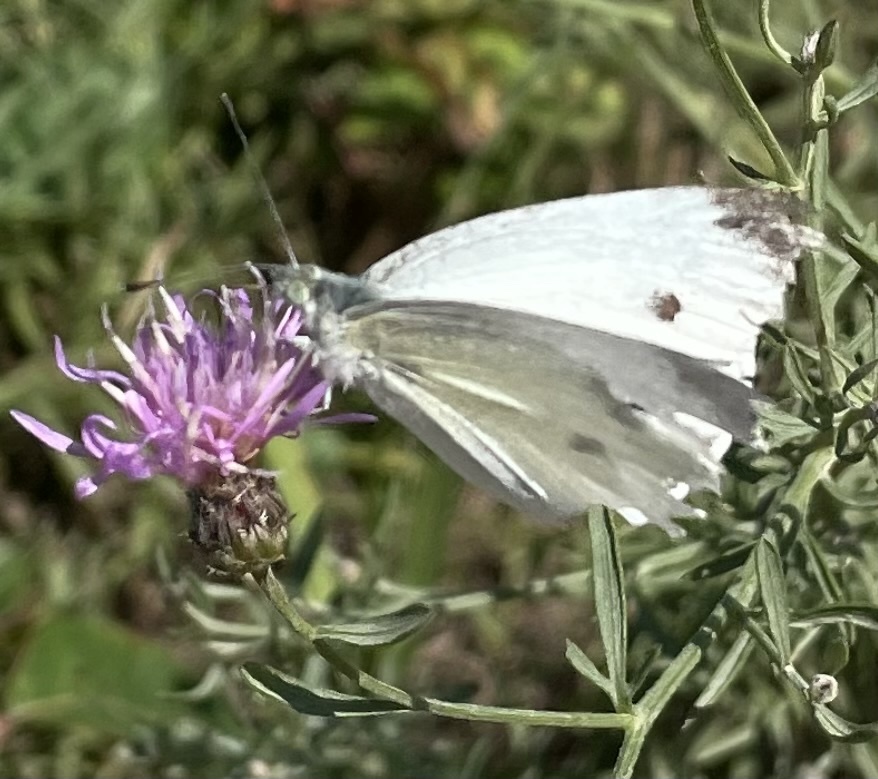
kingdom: Animalia
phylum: Arthropoda
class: Insecta
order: Lepidoptera
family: Pieridae
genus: Pieris
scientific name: Pieris rapae
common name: Small white
